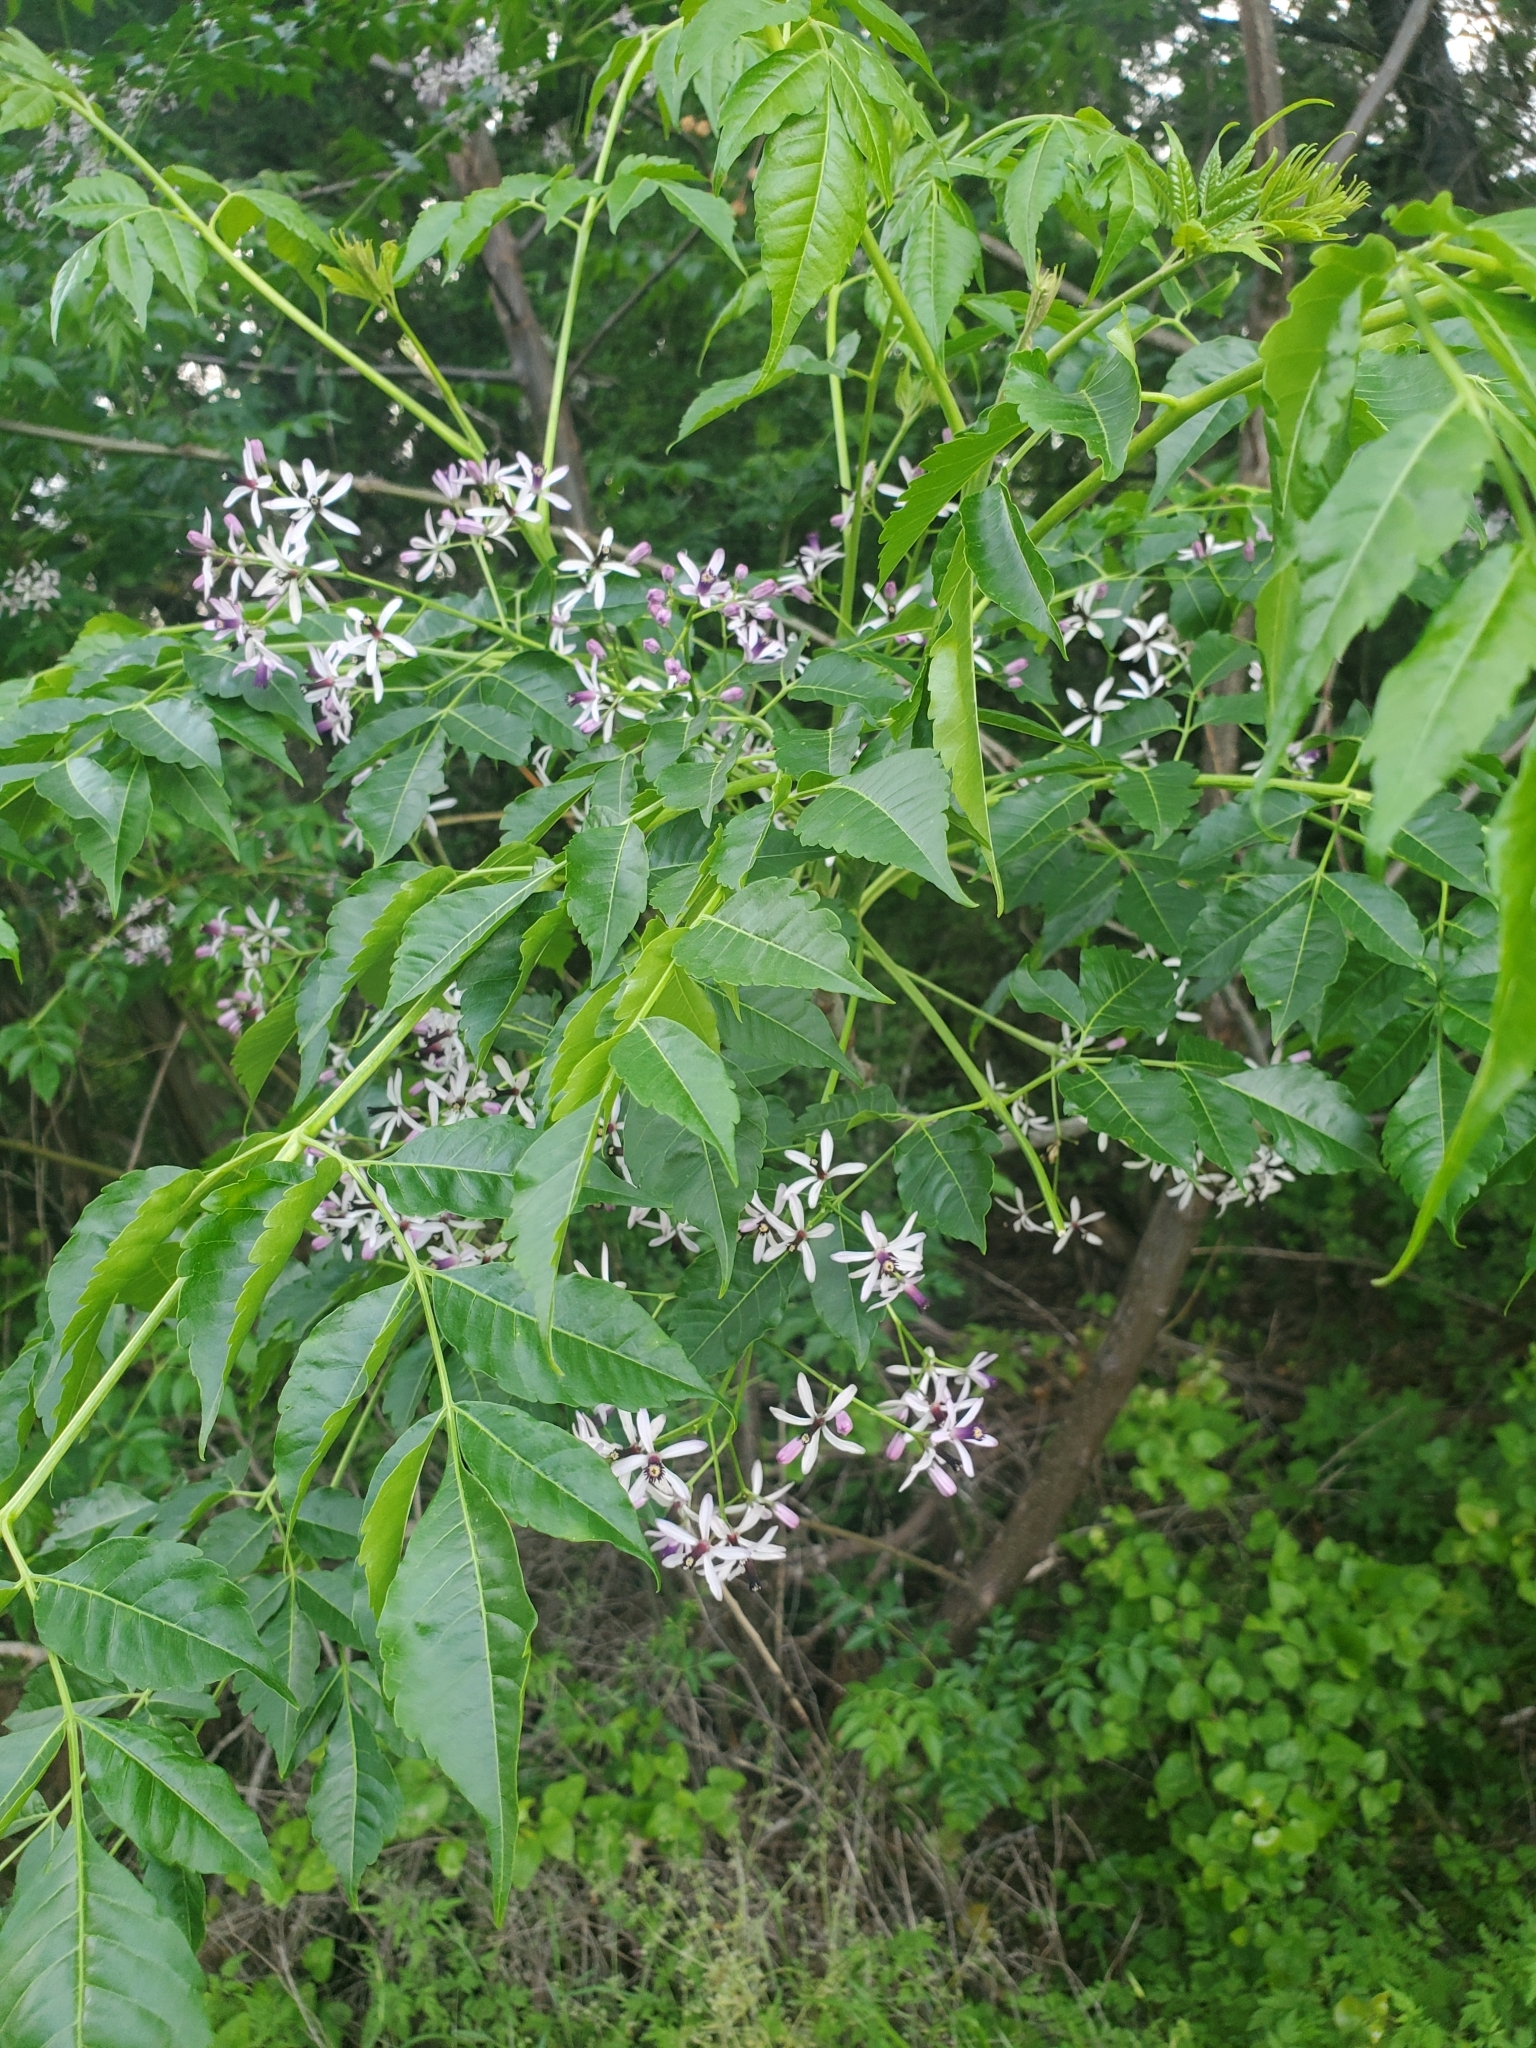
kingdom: Plantae
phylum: Tracheophyta
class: Magnoliopsida
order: Sapindales
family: Meliaceae
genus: Melia
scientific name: Melia azedarach
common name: Chinaberrytree
